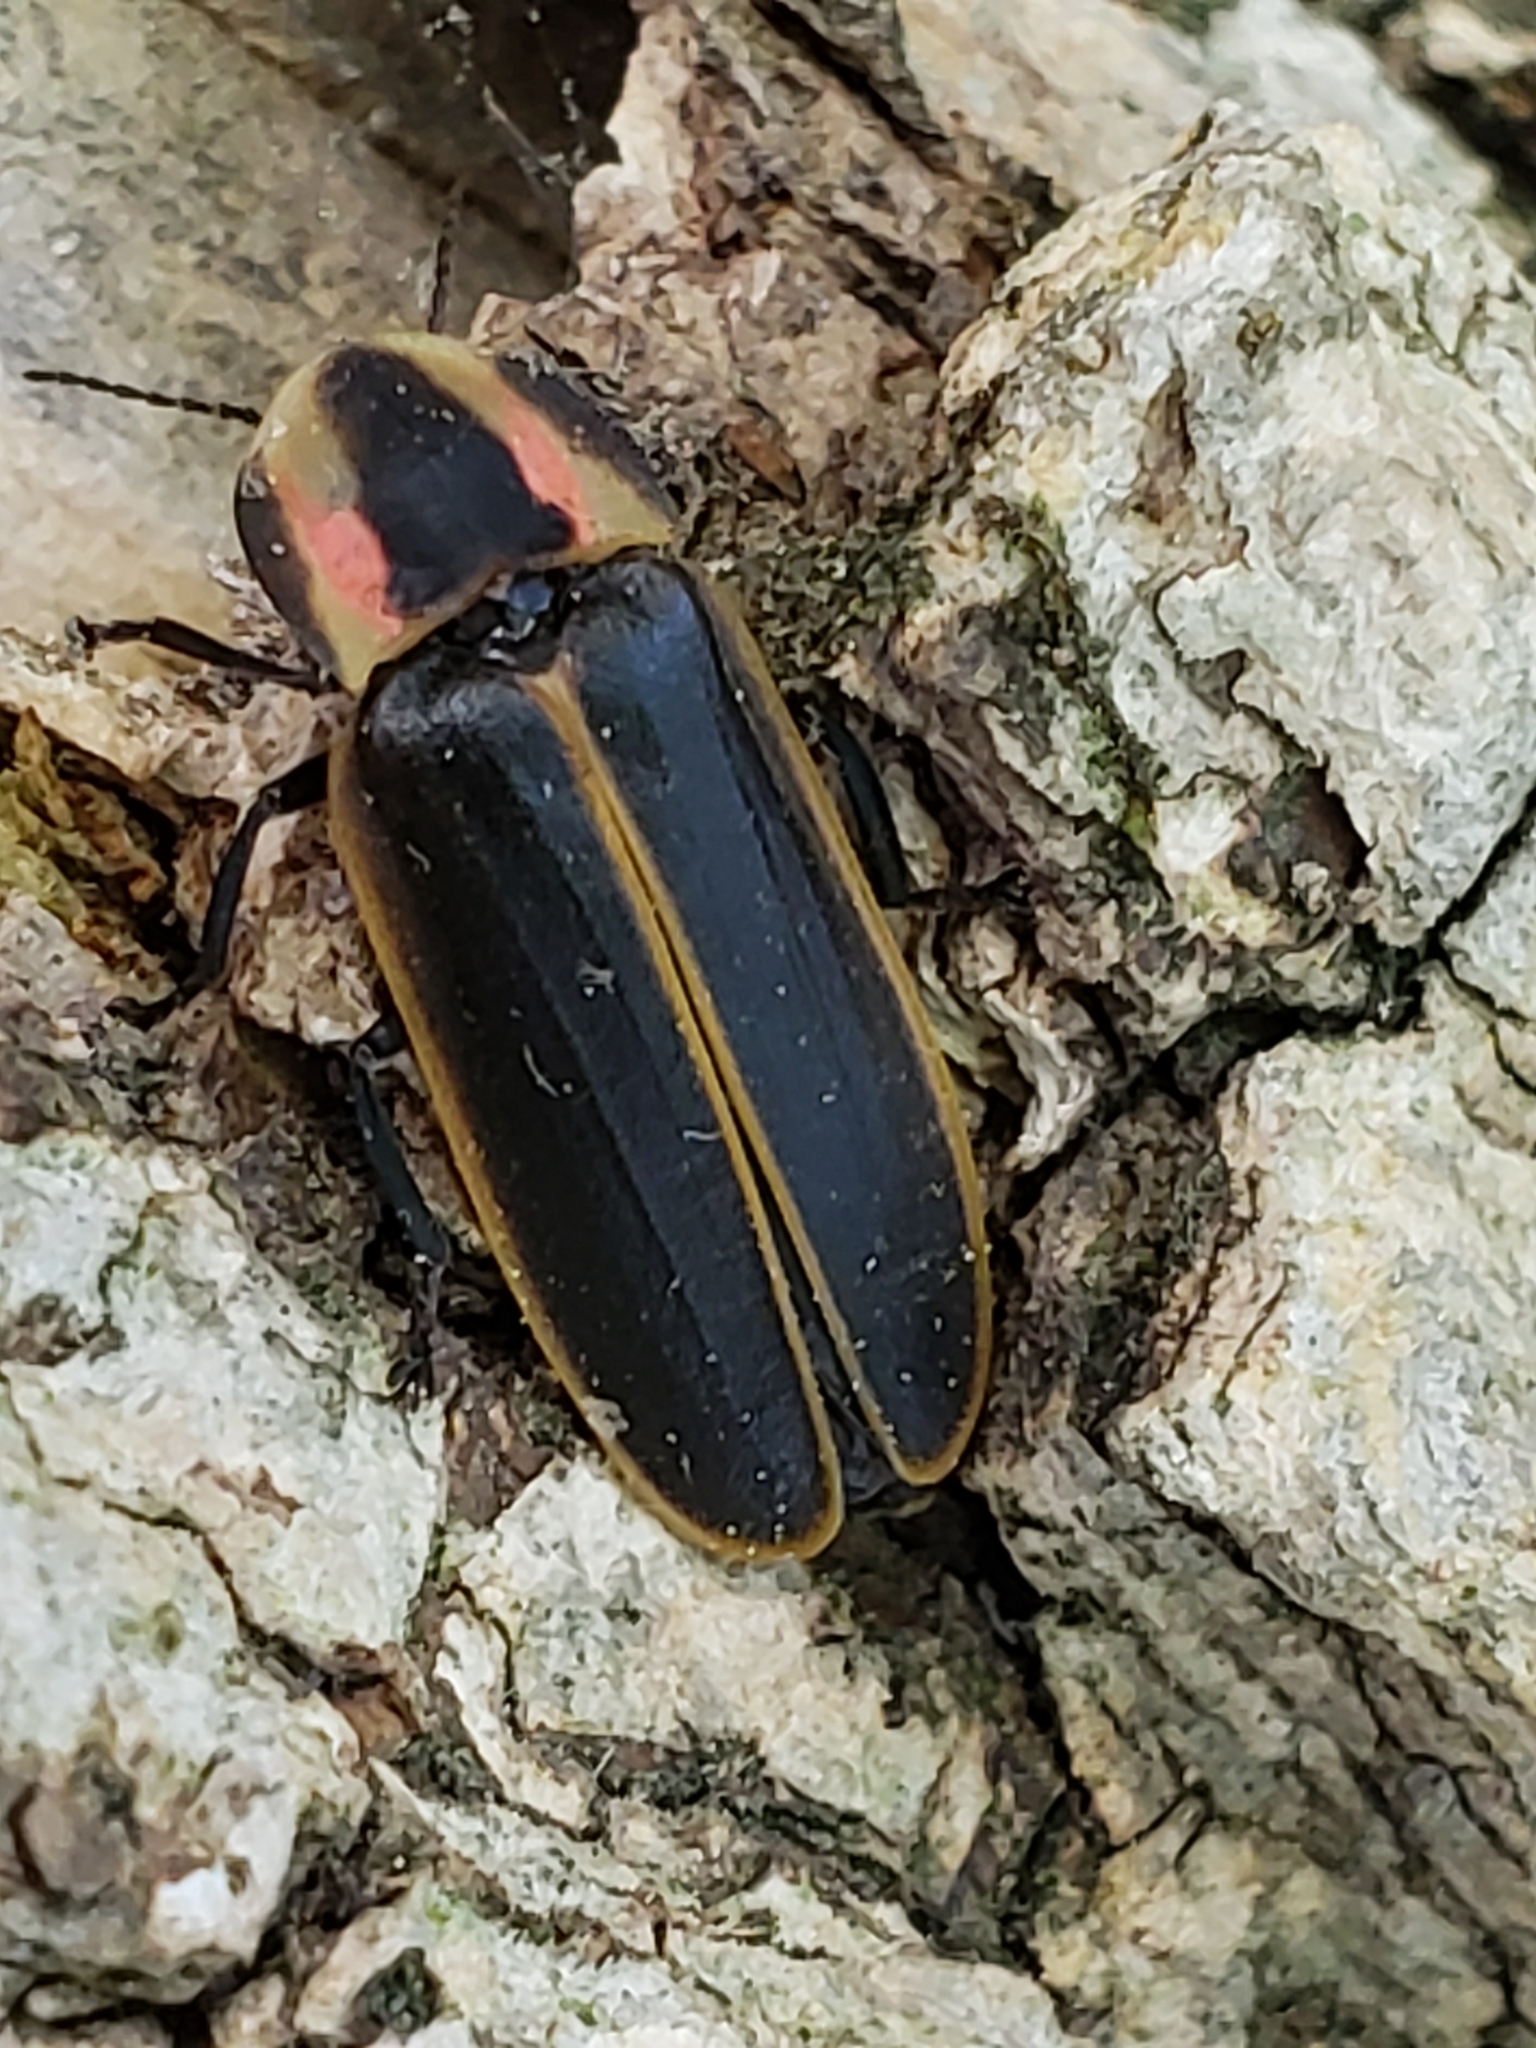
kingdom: Animalia
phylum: Arthropoda
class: Insecta
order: Coleoptera
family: Lampyridae
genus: Pyractomena
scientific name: Pyractomena borealis
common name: Northern firefly
